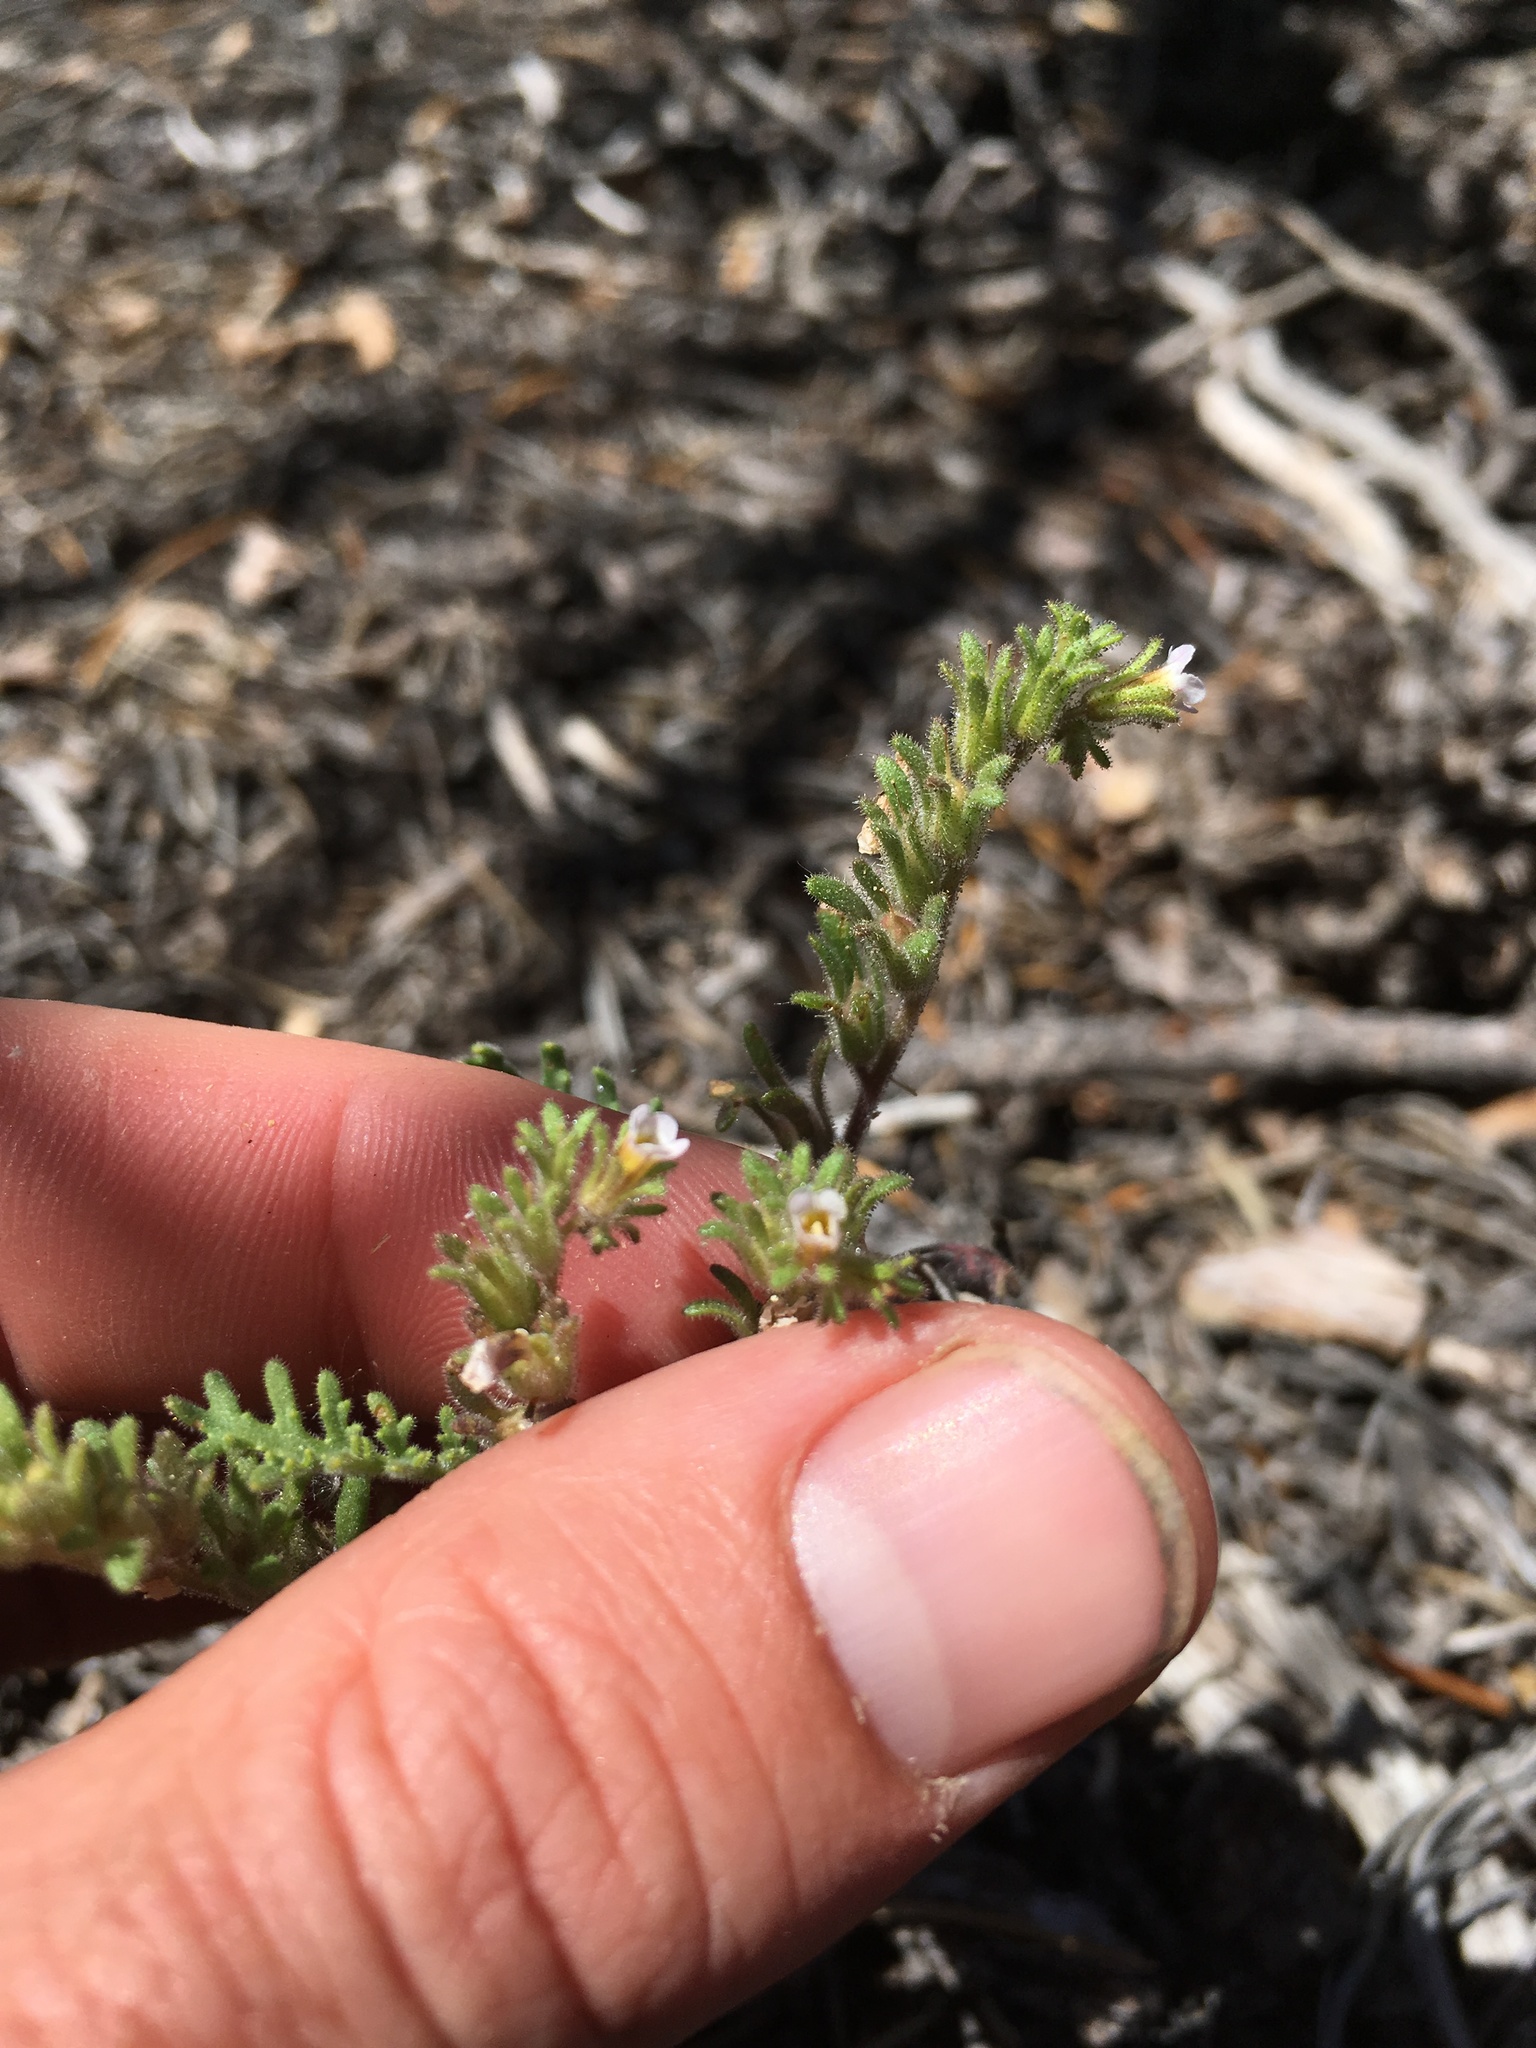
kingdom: Plantae
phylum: Tracheophyta
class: Magnoliopsida
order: Boraginales
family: Hydrophyllaceae
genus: Phacelia
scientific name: Phacelia glandulifera
